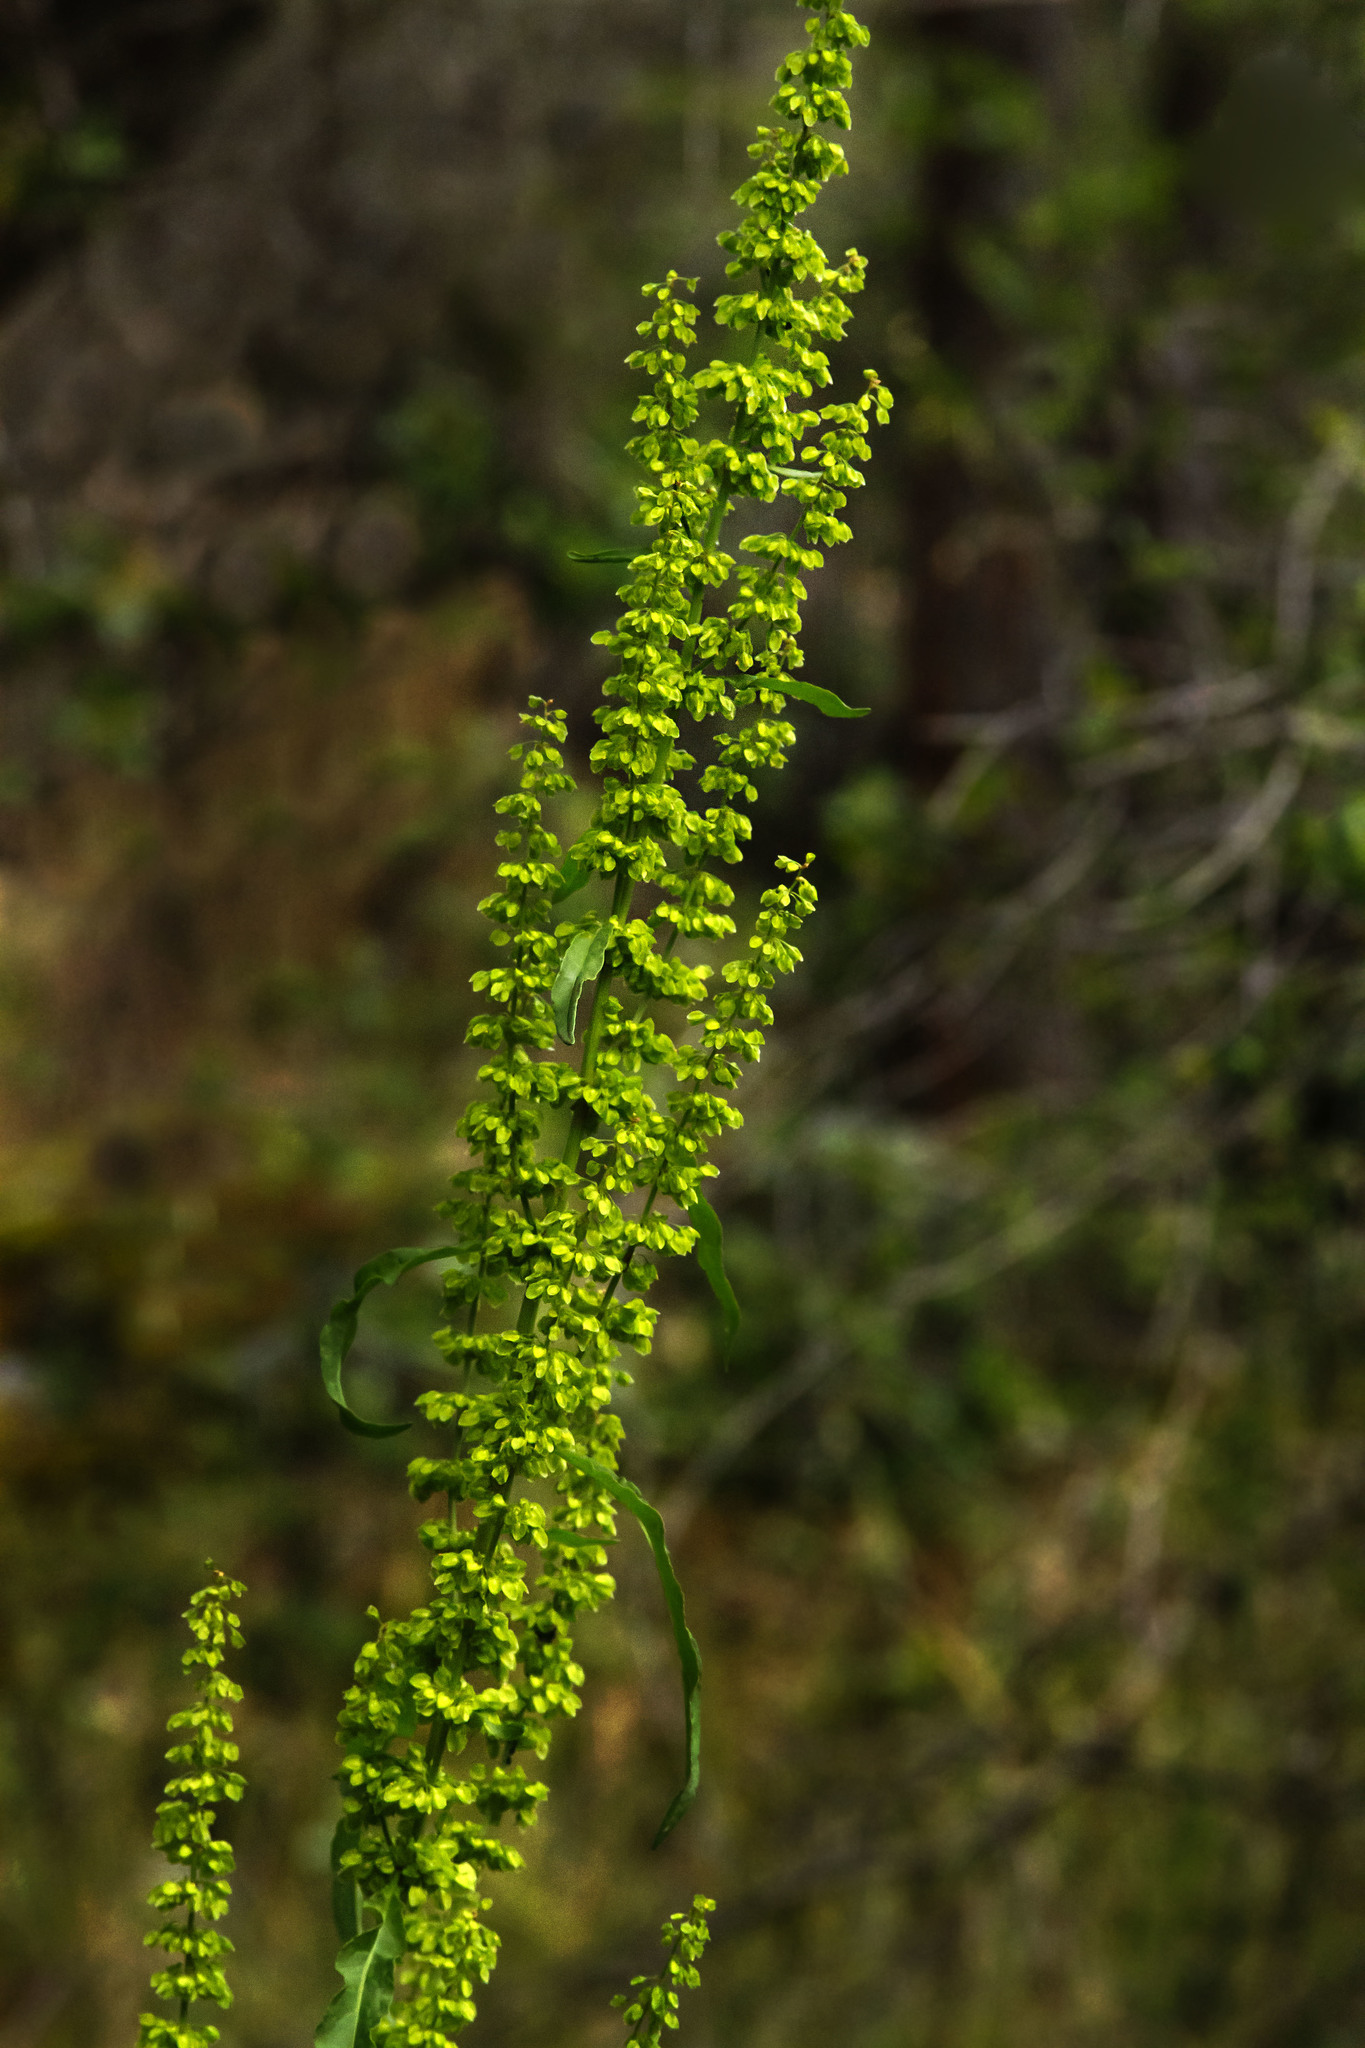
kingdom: Plantae
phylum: Tracheophyta
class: Magnoliopsida
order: Caryophyllales
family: Polygonaceae
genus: Rumex
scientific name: Rumex crispus
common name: Curled dock
